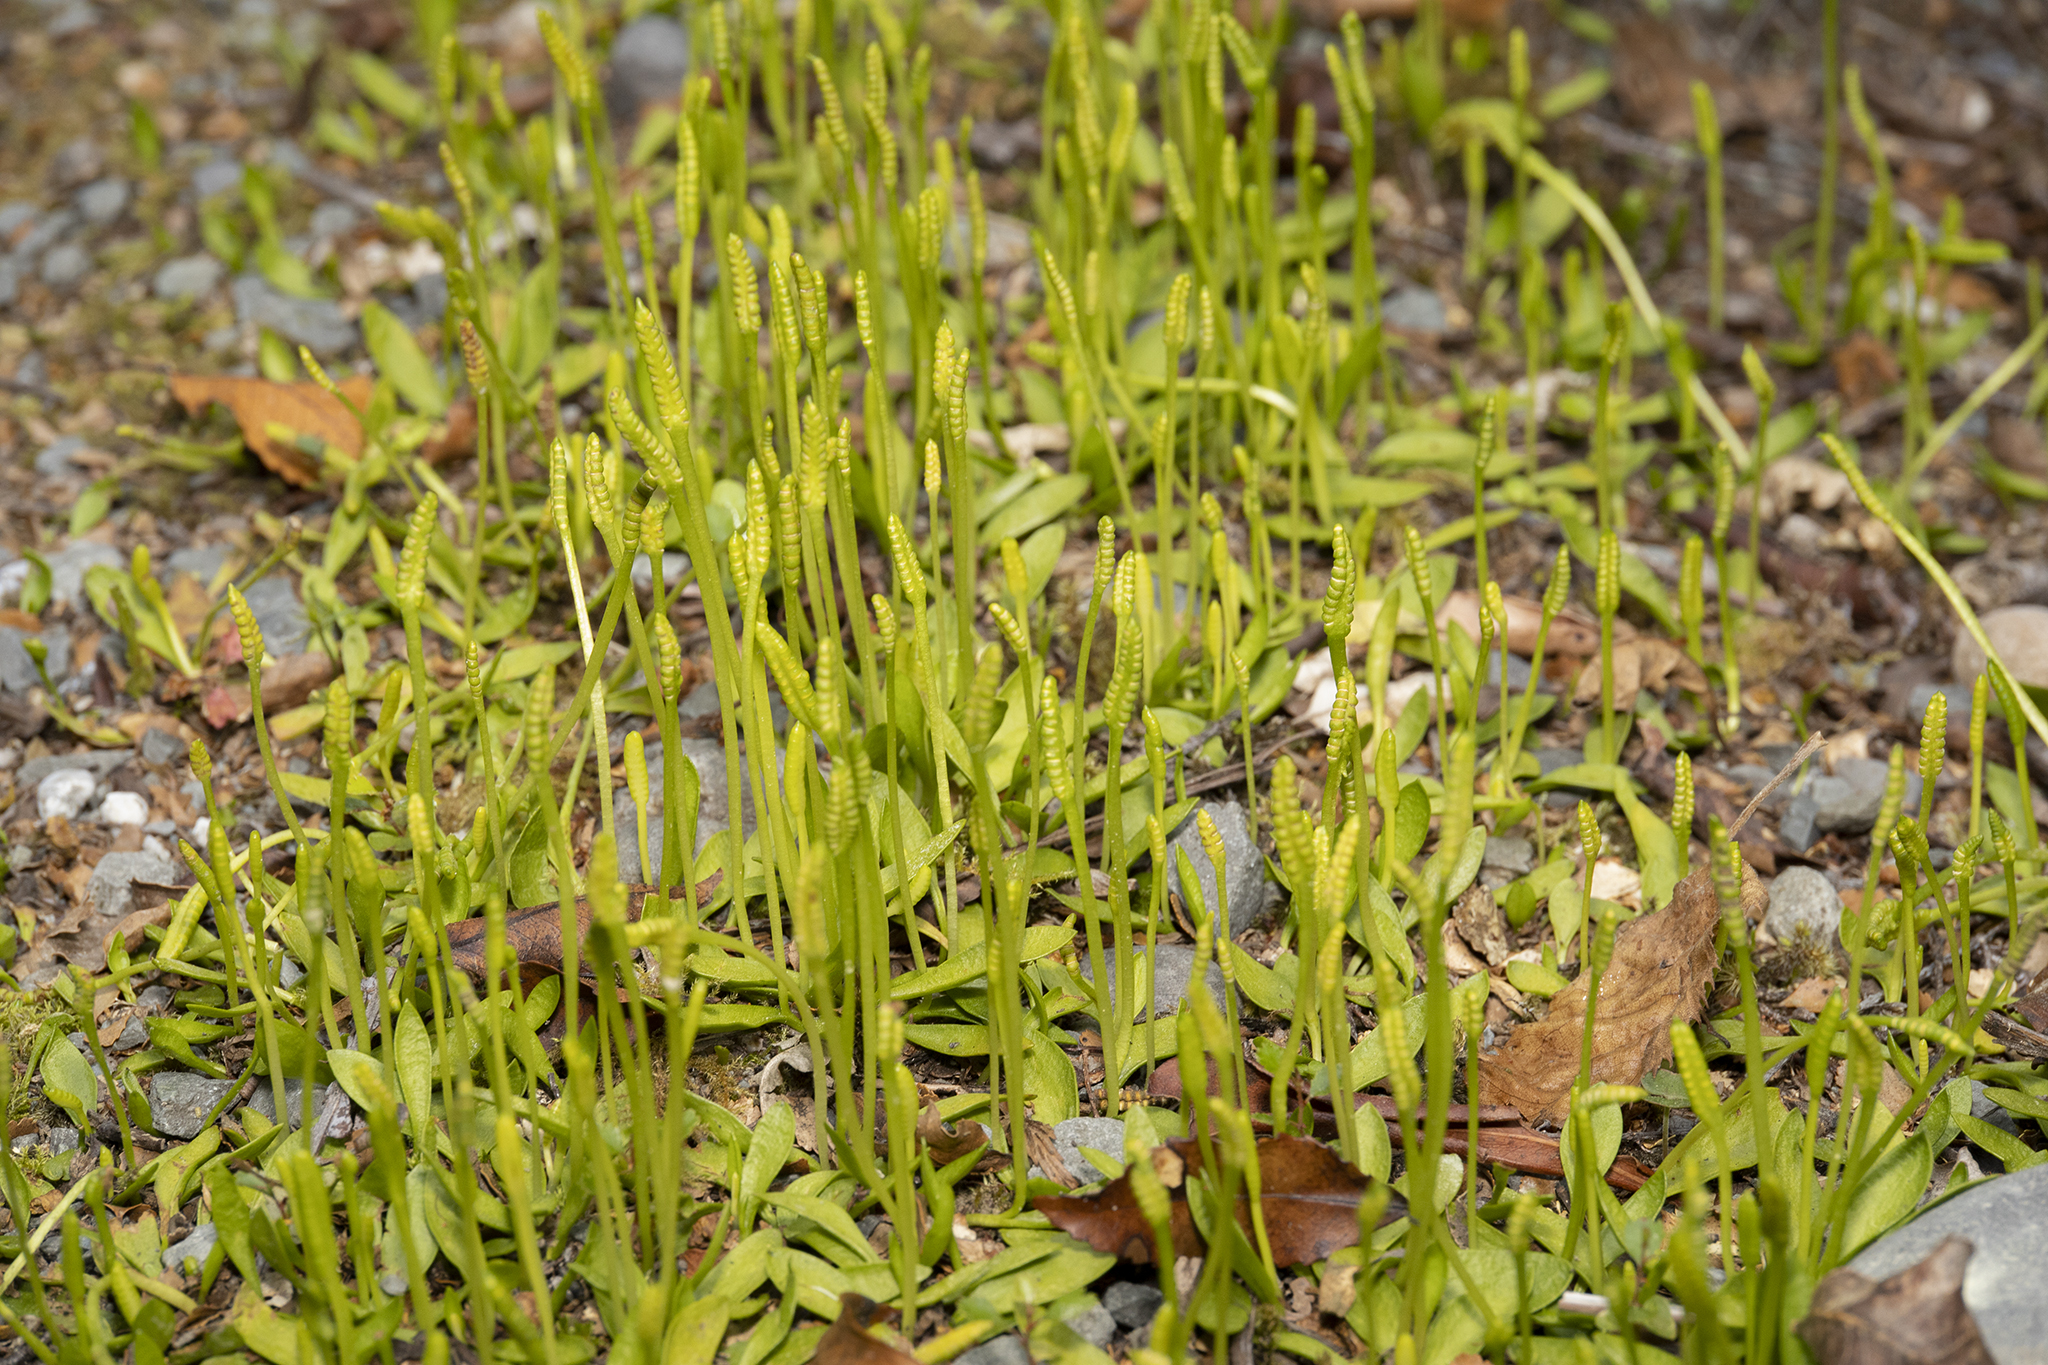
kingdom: Plantae
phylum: Tracheophyta
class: Polypodiopsida
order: Ophioglossales
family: Ophioglossaceae
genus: Ophioglossum
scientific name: Ophioglossum coriaceum
